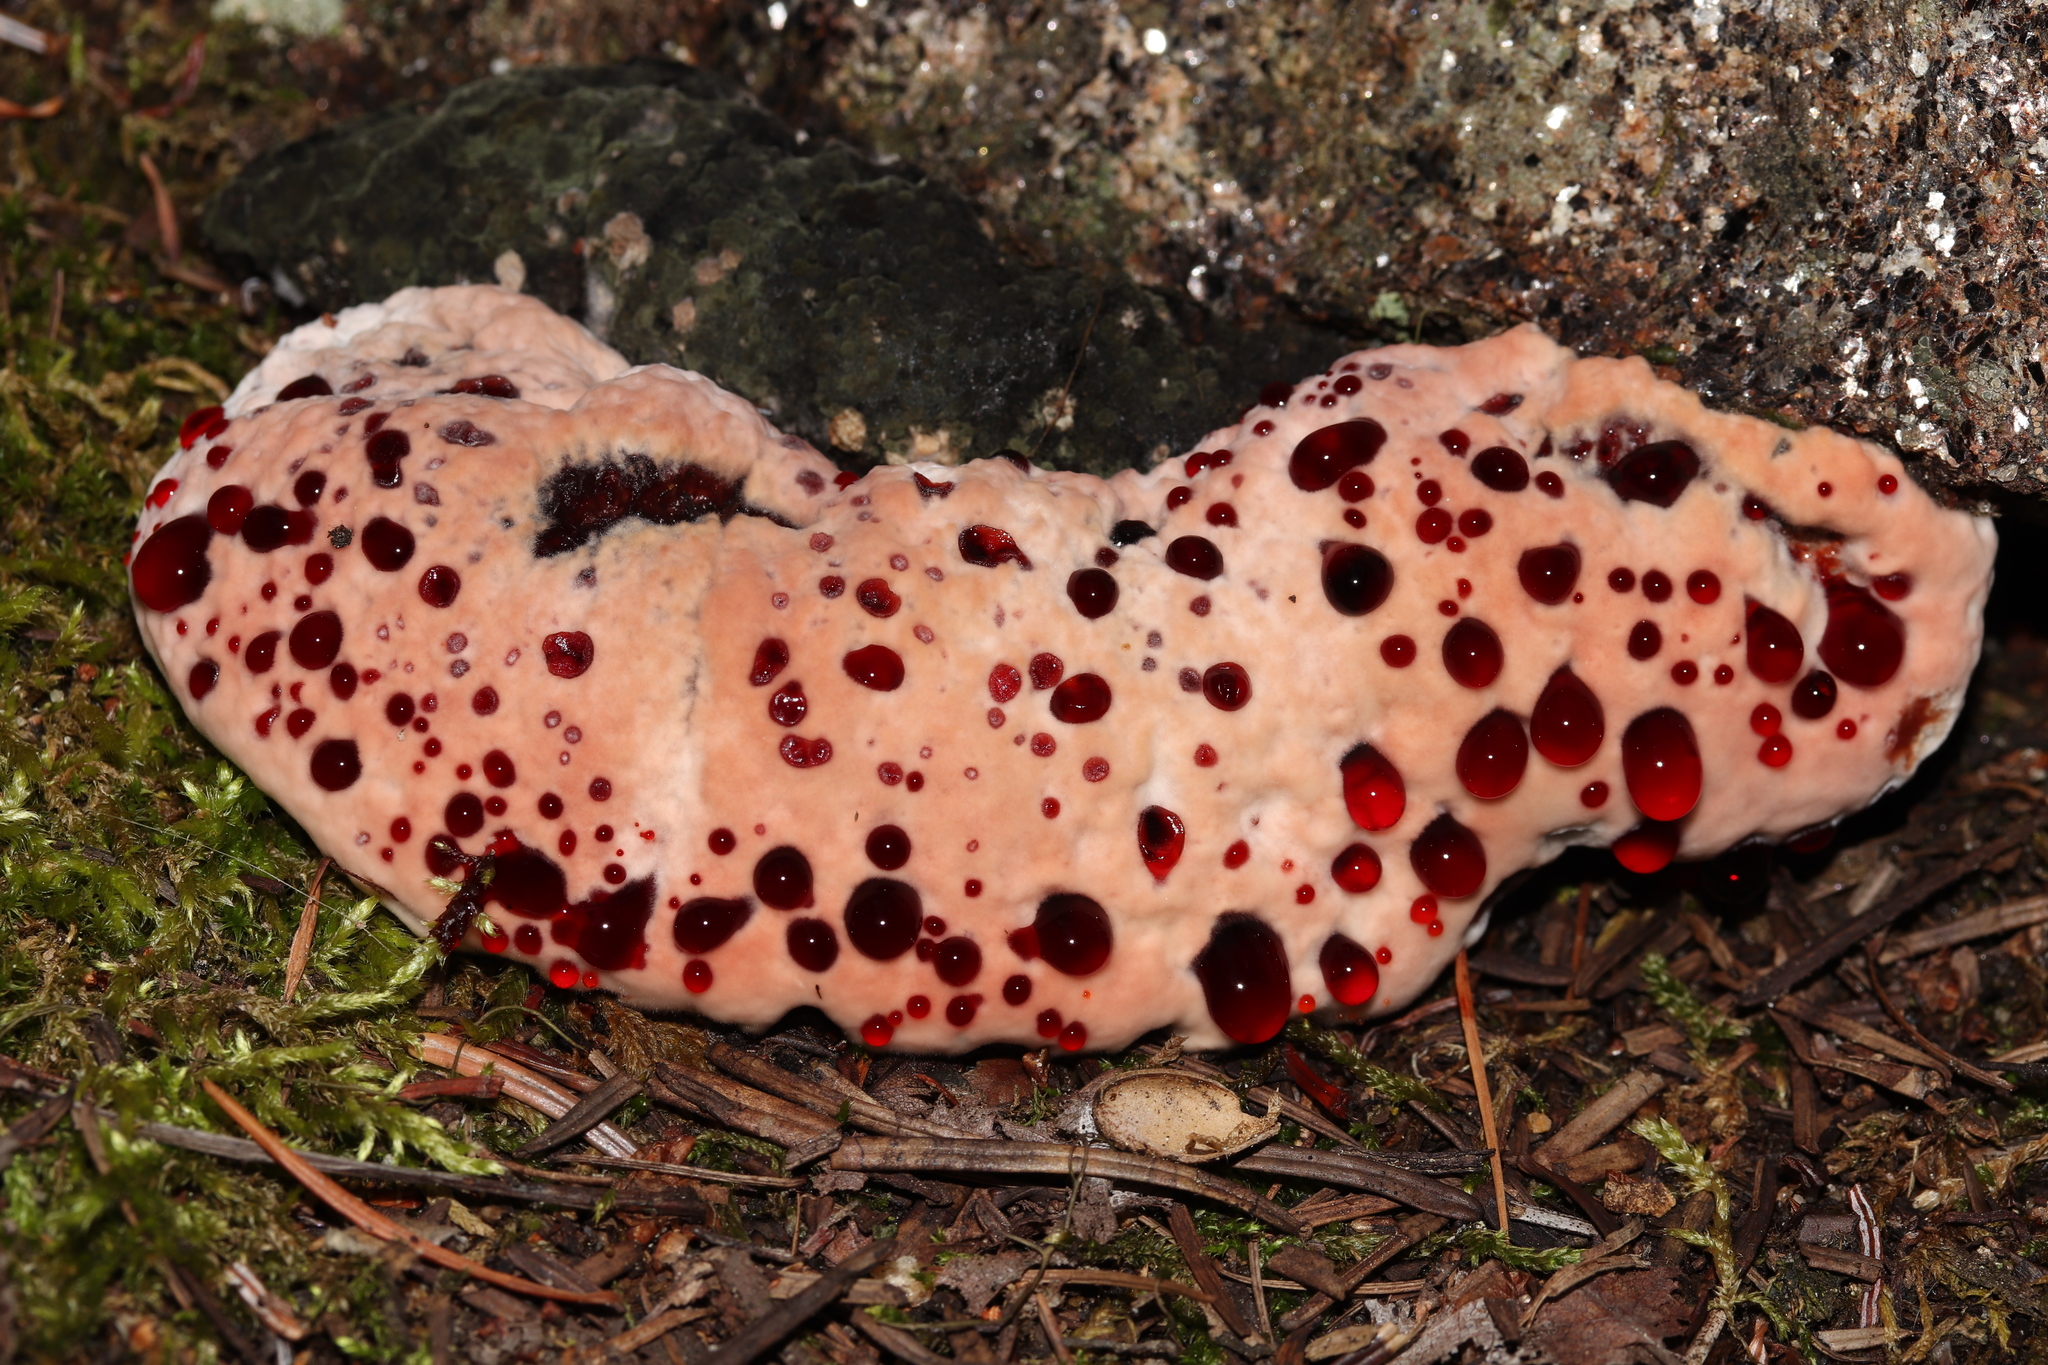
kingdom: Fungi
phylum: Basidiomycota
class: Agaricomycetes
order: Thelephorales
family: Bankeraceae
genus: Hydnellum
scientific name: Hydnellum peckii
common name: Devil's tooth
